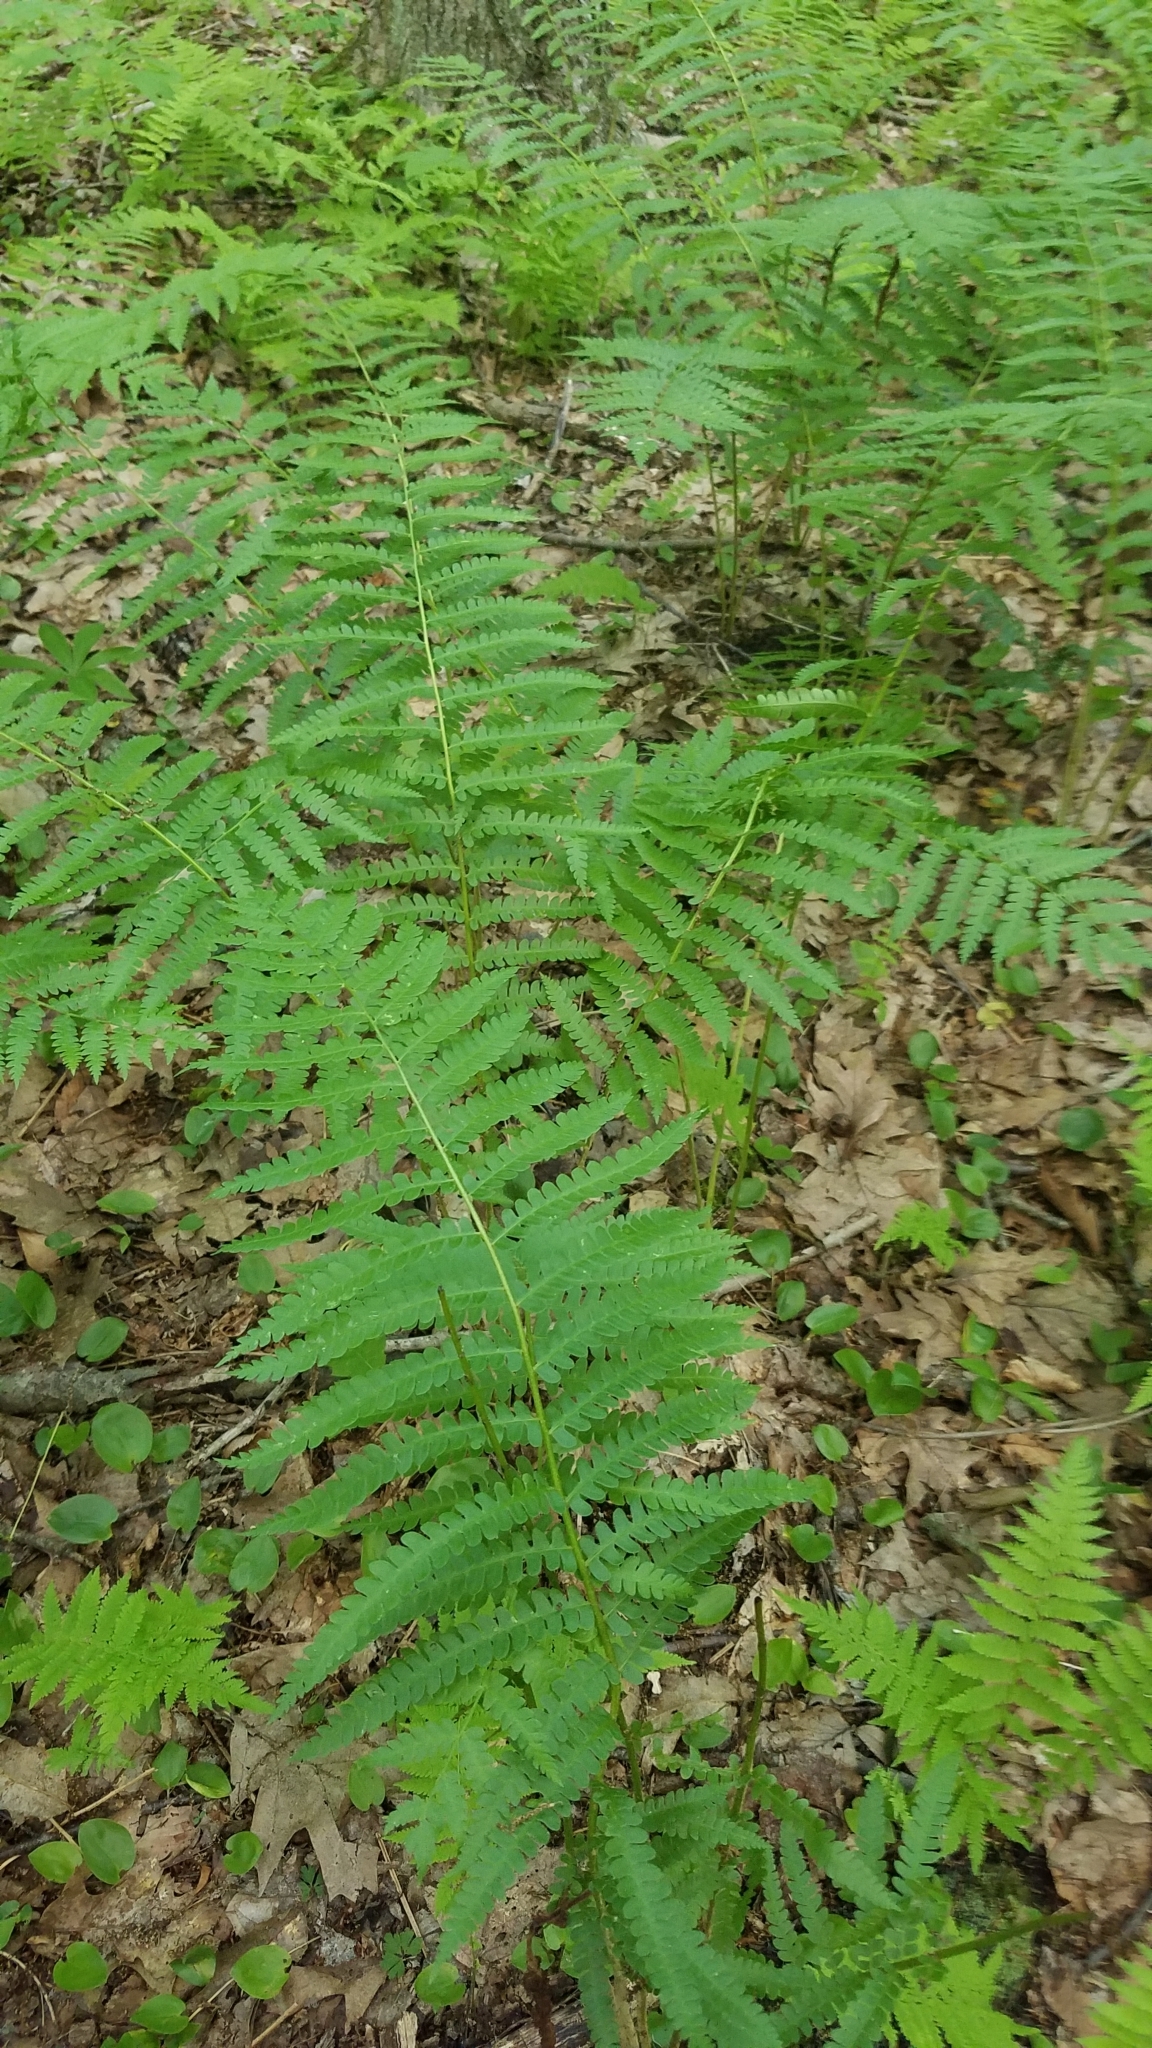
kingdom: Plantae
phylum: Tracheophyta
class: Polypodiopsida
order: Osmundales
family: Osmundaceae
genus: Osmundastrum
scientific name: Osmundastrum cinnamomeum
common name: Cinnamon fern
